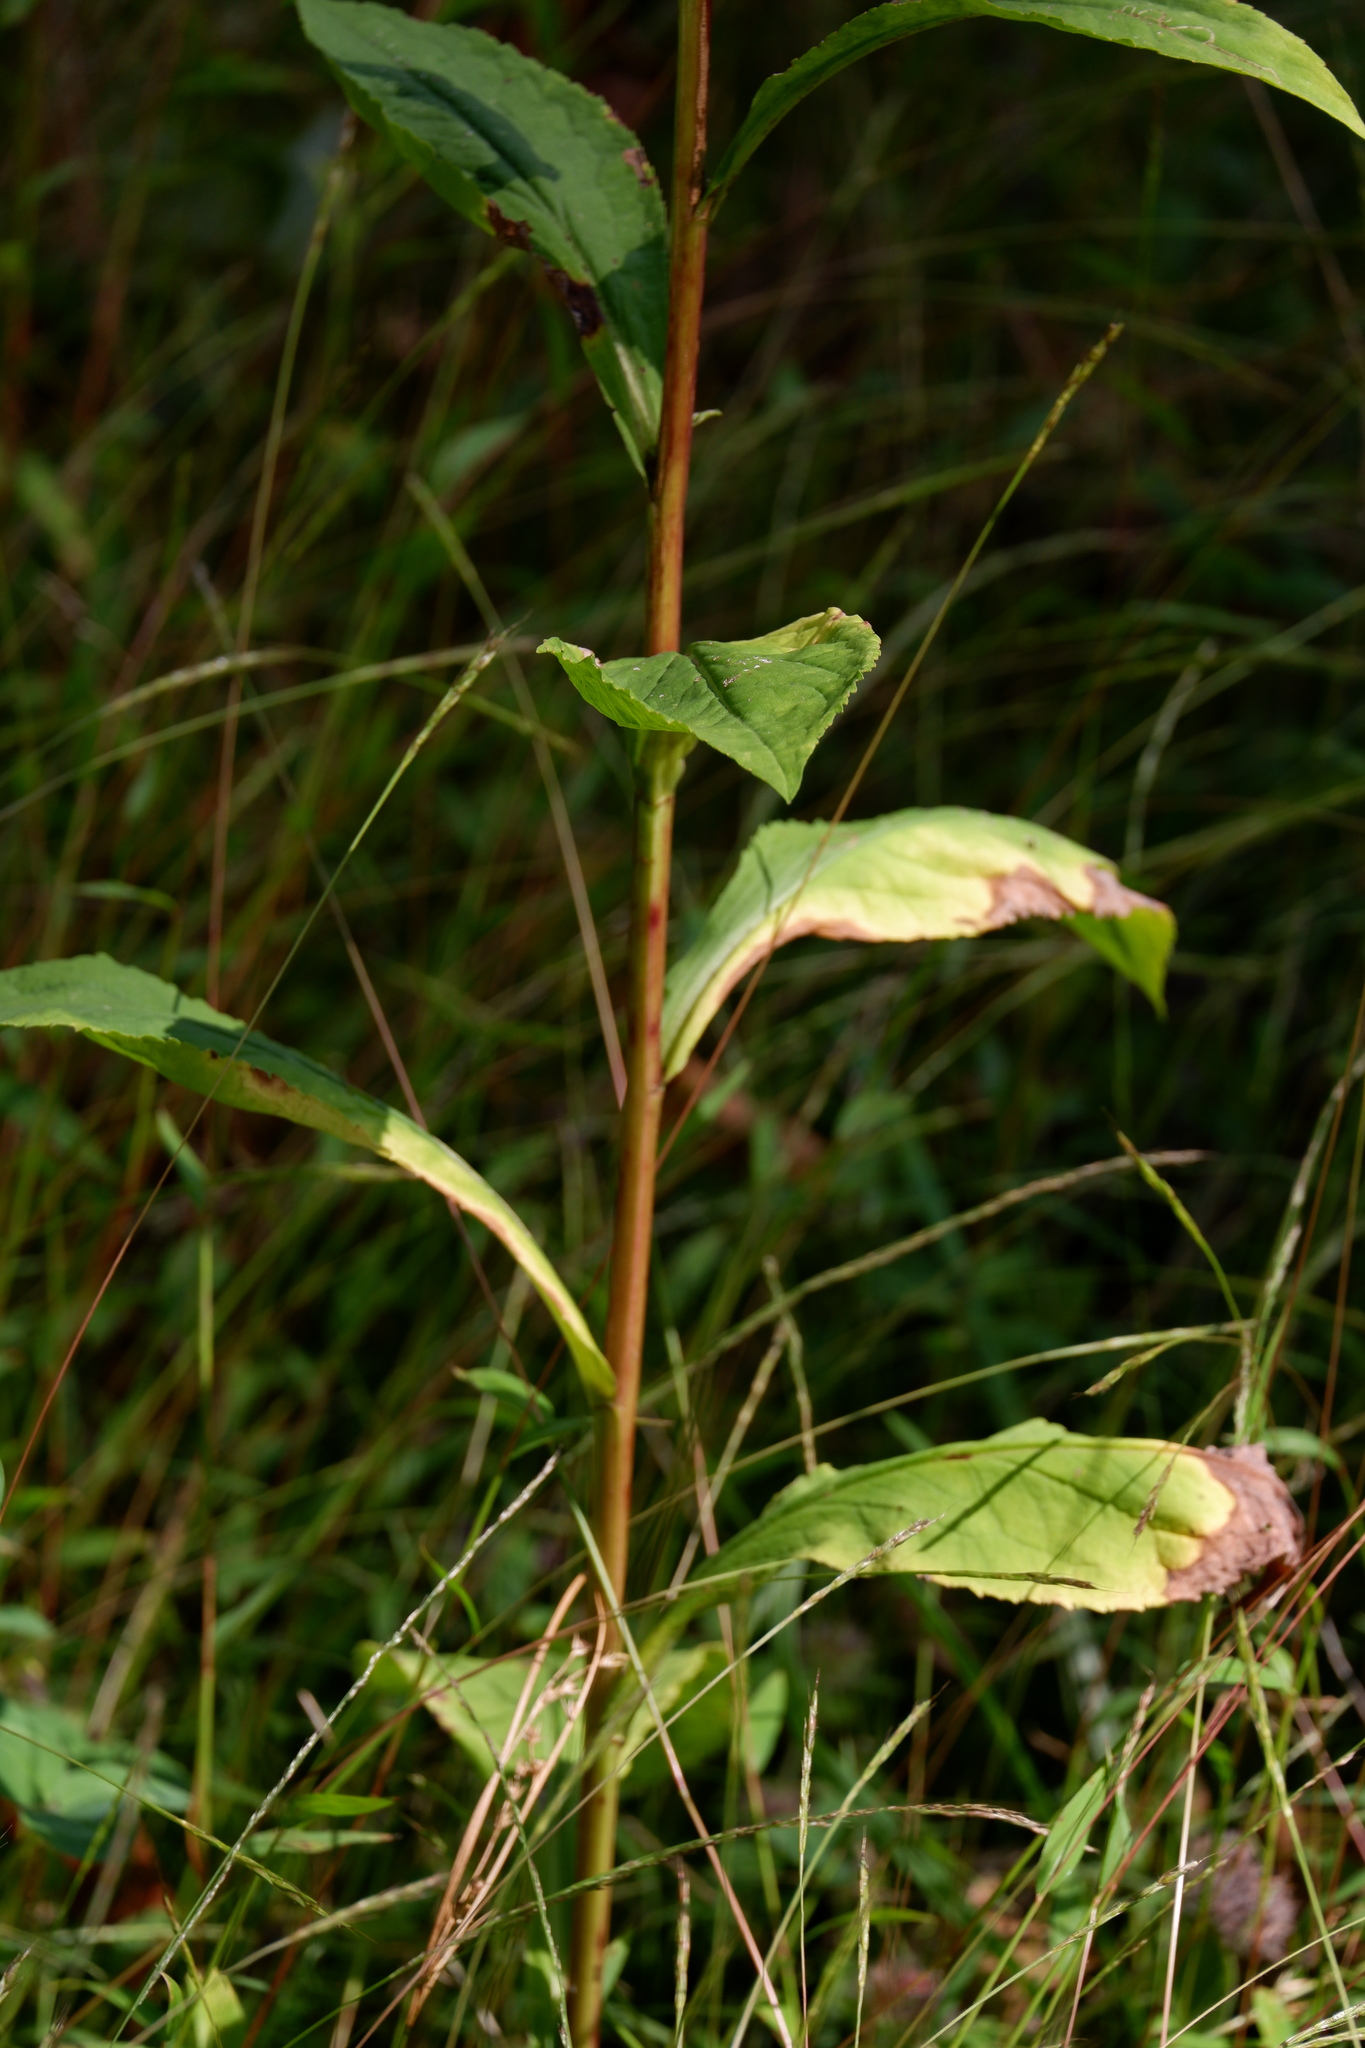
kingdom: Plantae
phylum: Tracheophyta
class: Magnoliopsida
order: Asterales
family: Asteraceae
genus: Solidago
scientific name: Solidago patula
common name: Rough-leaf goldenrod
